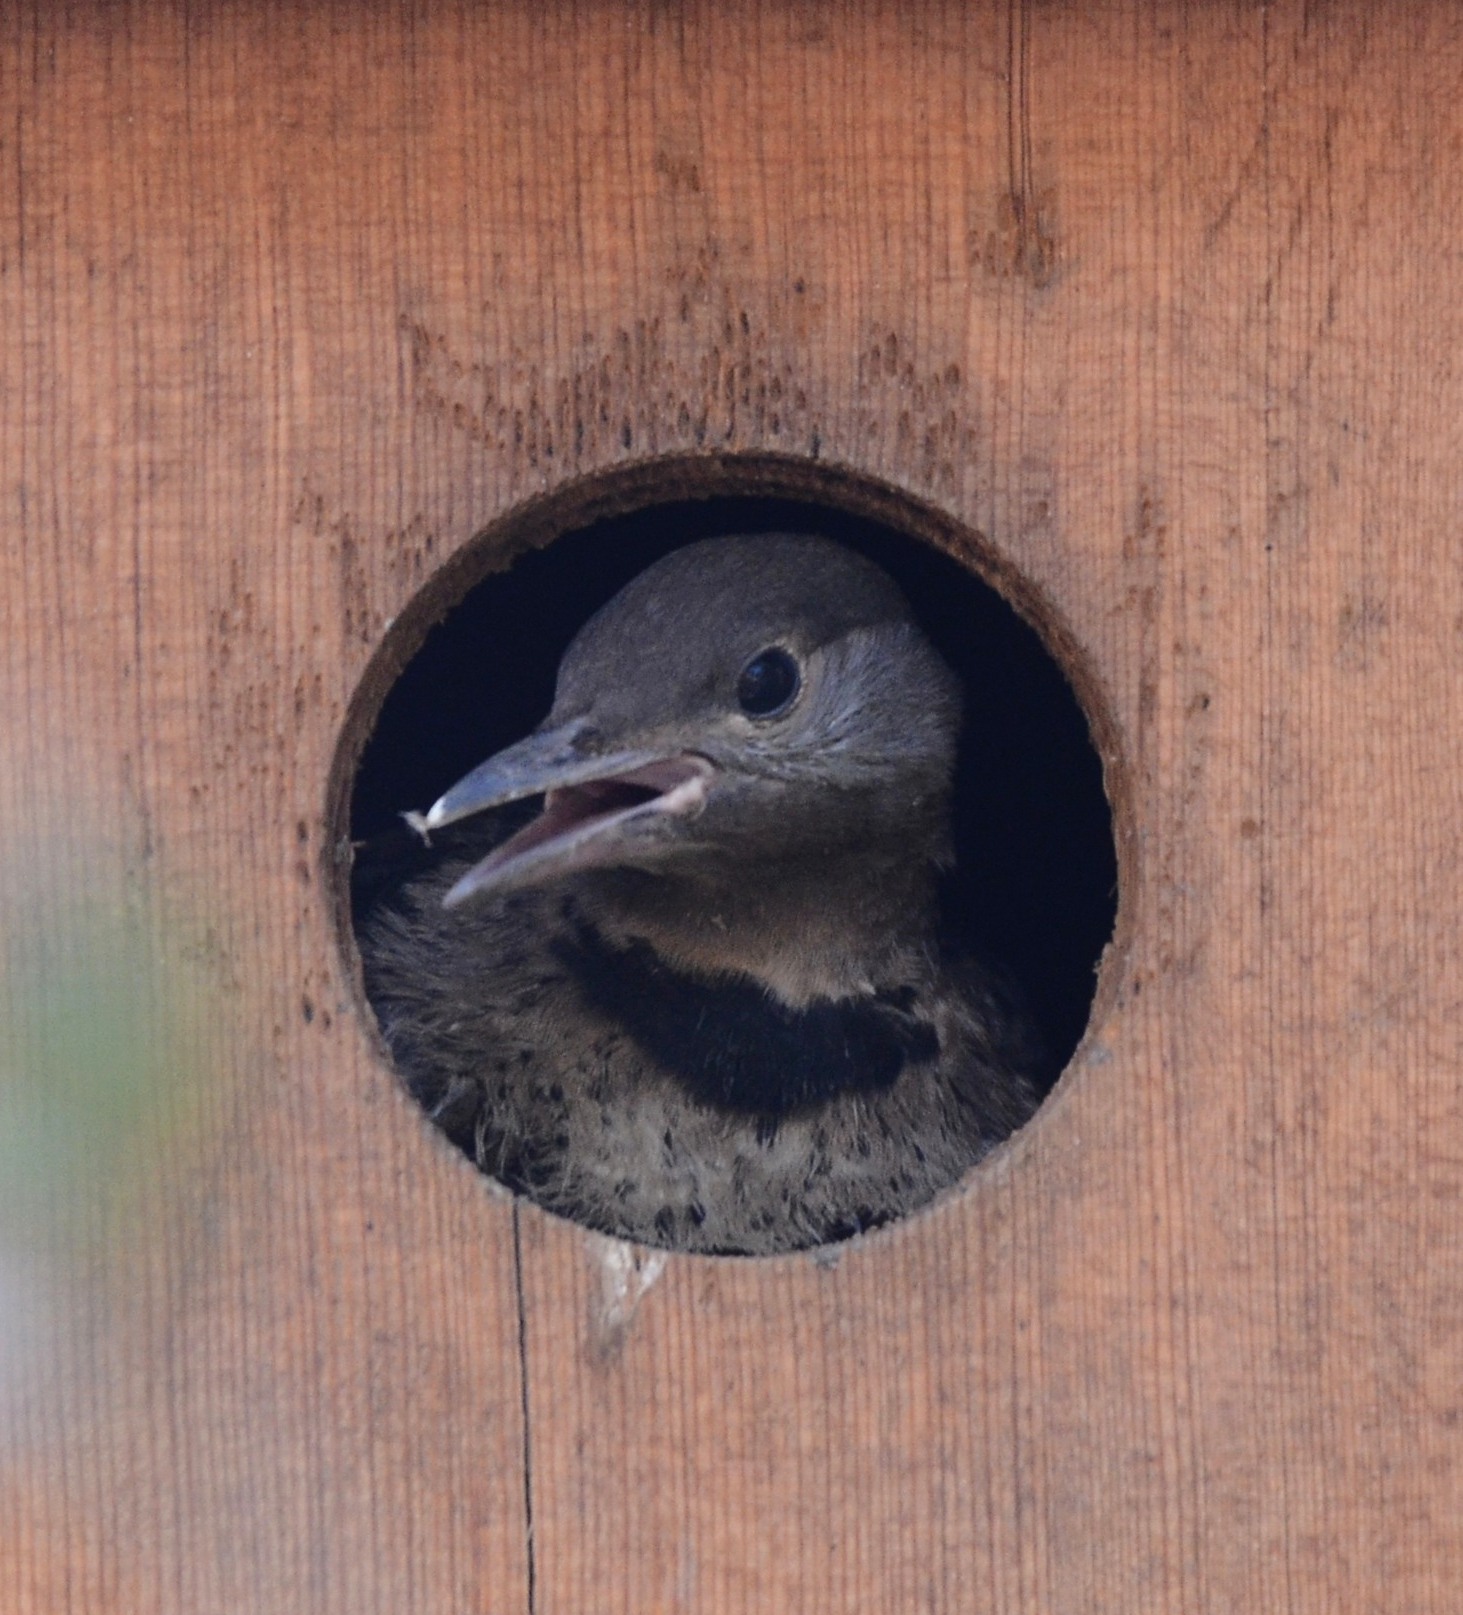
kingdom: Animalia
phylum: Chordata
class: Aves
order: Piciformes
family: Picidae
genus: Colaptes
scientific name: Colaptes auratus
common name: Northern flicker
